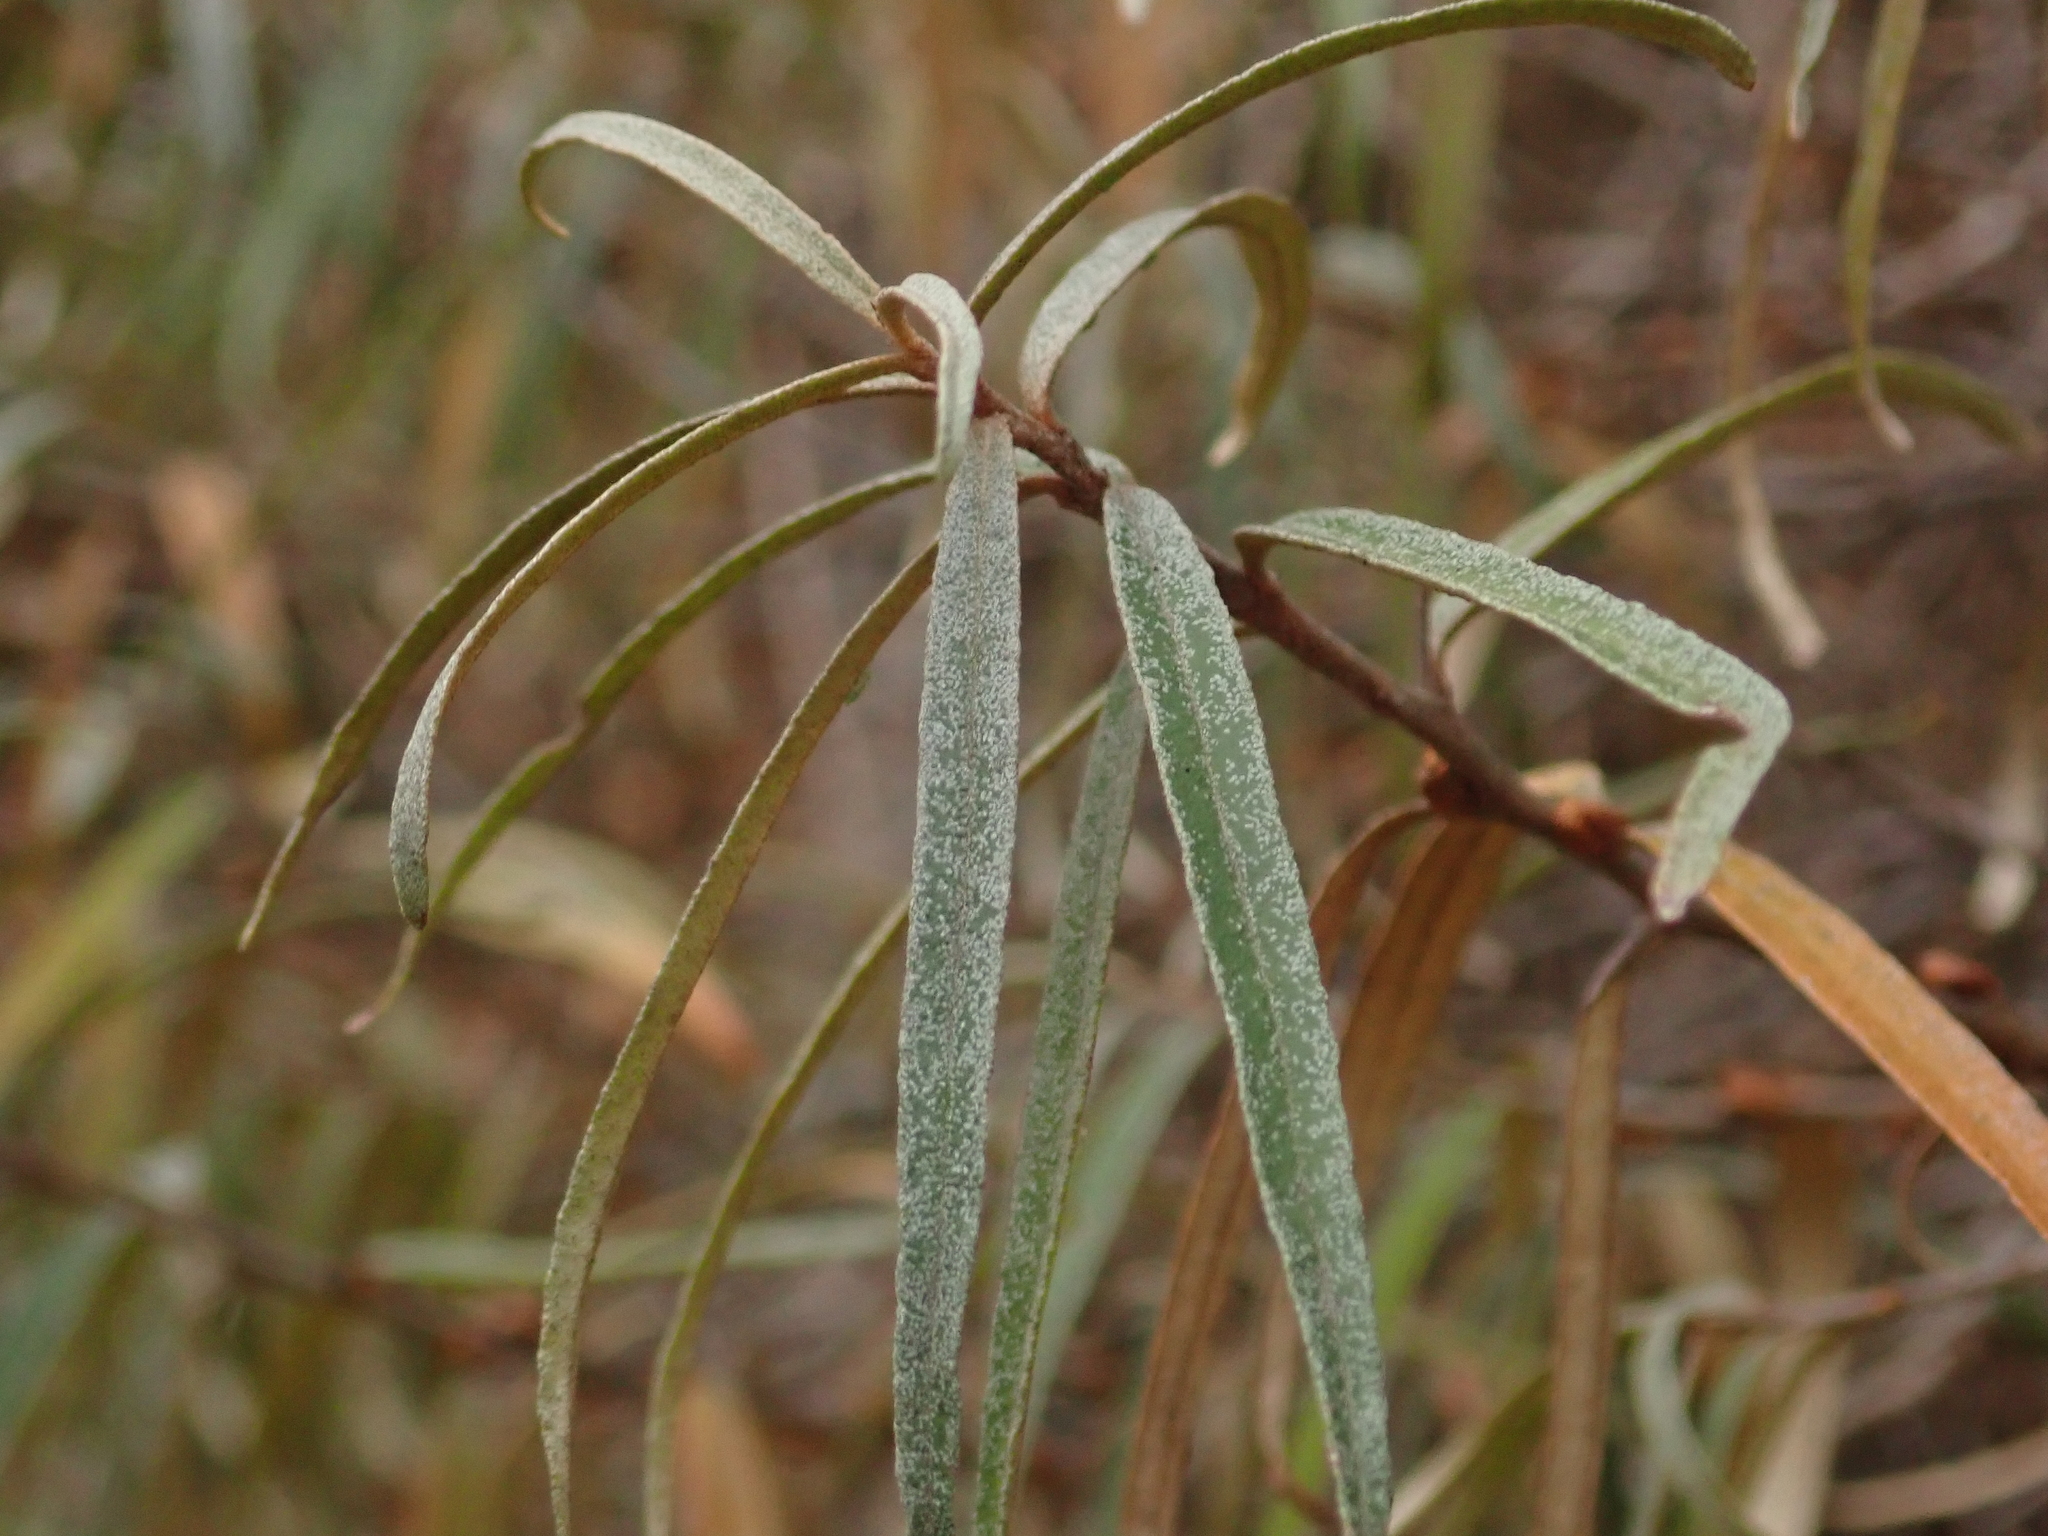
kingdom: Plantae
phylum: Tracheophyta
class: Magnoliopsida
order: Rosales
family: Elaeagnaceae
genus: Hippophae
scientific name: Hippophae rhamnoides
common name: Sea-buckthorn
